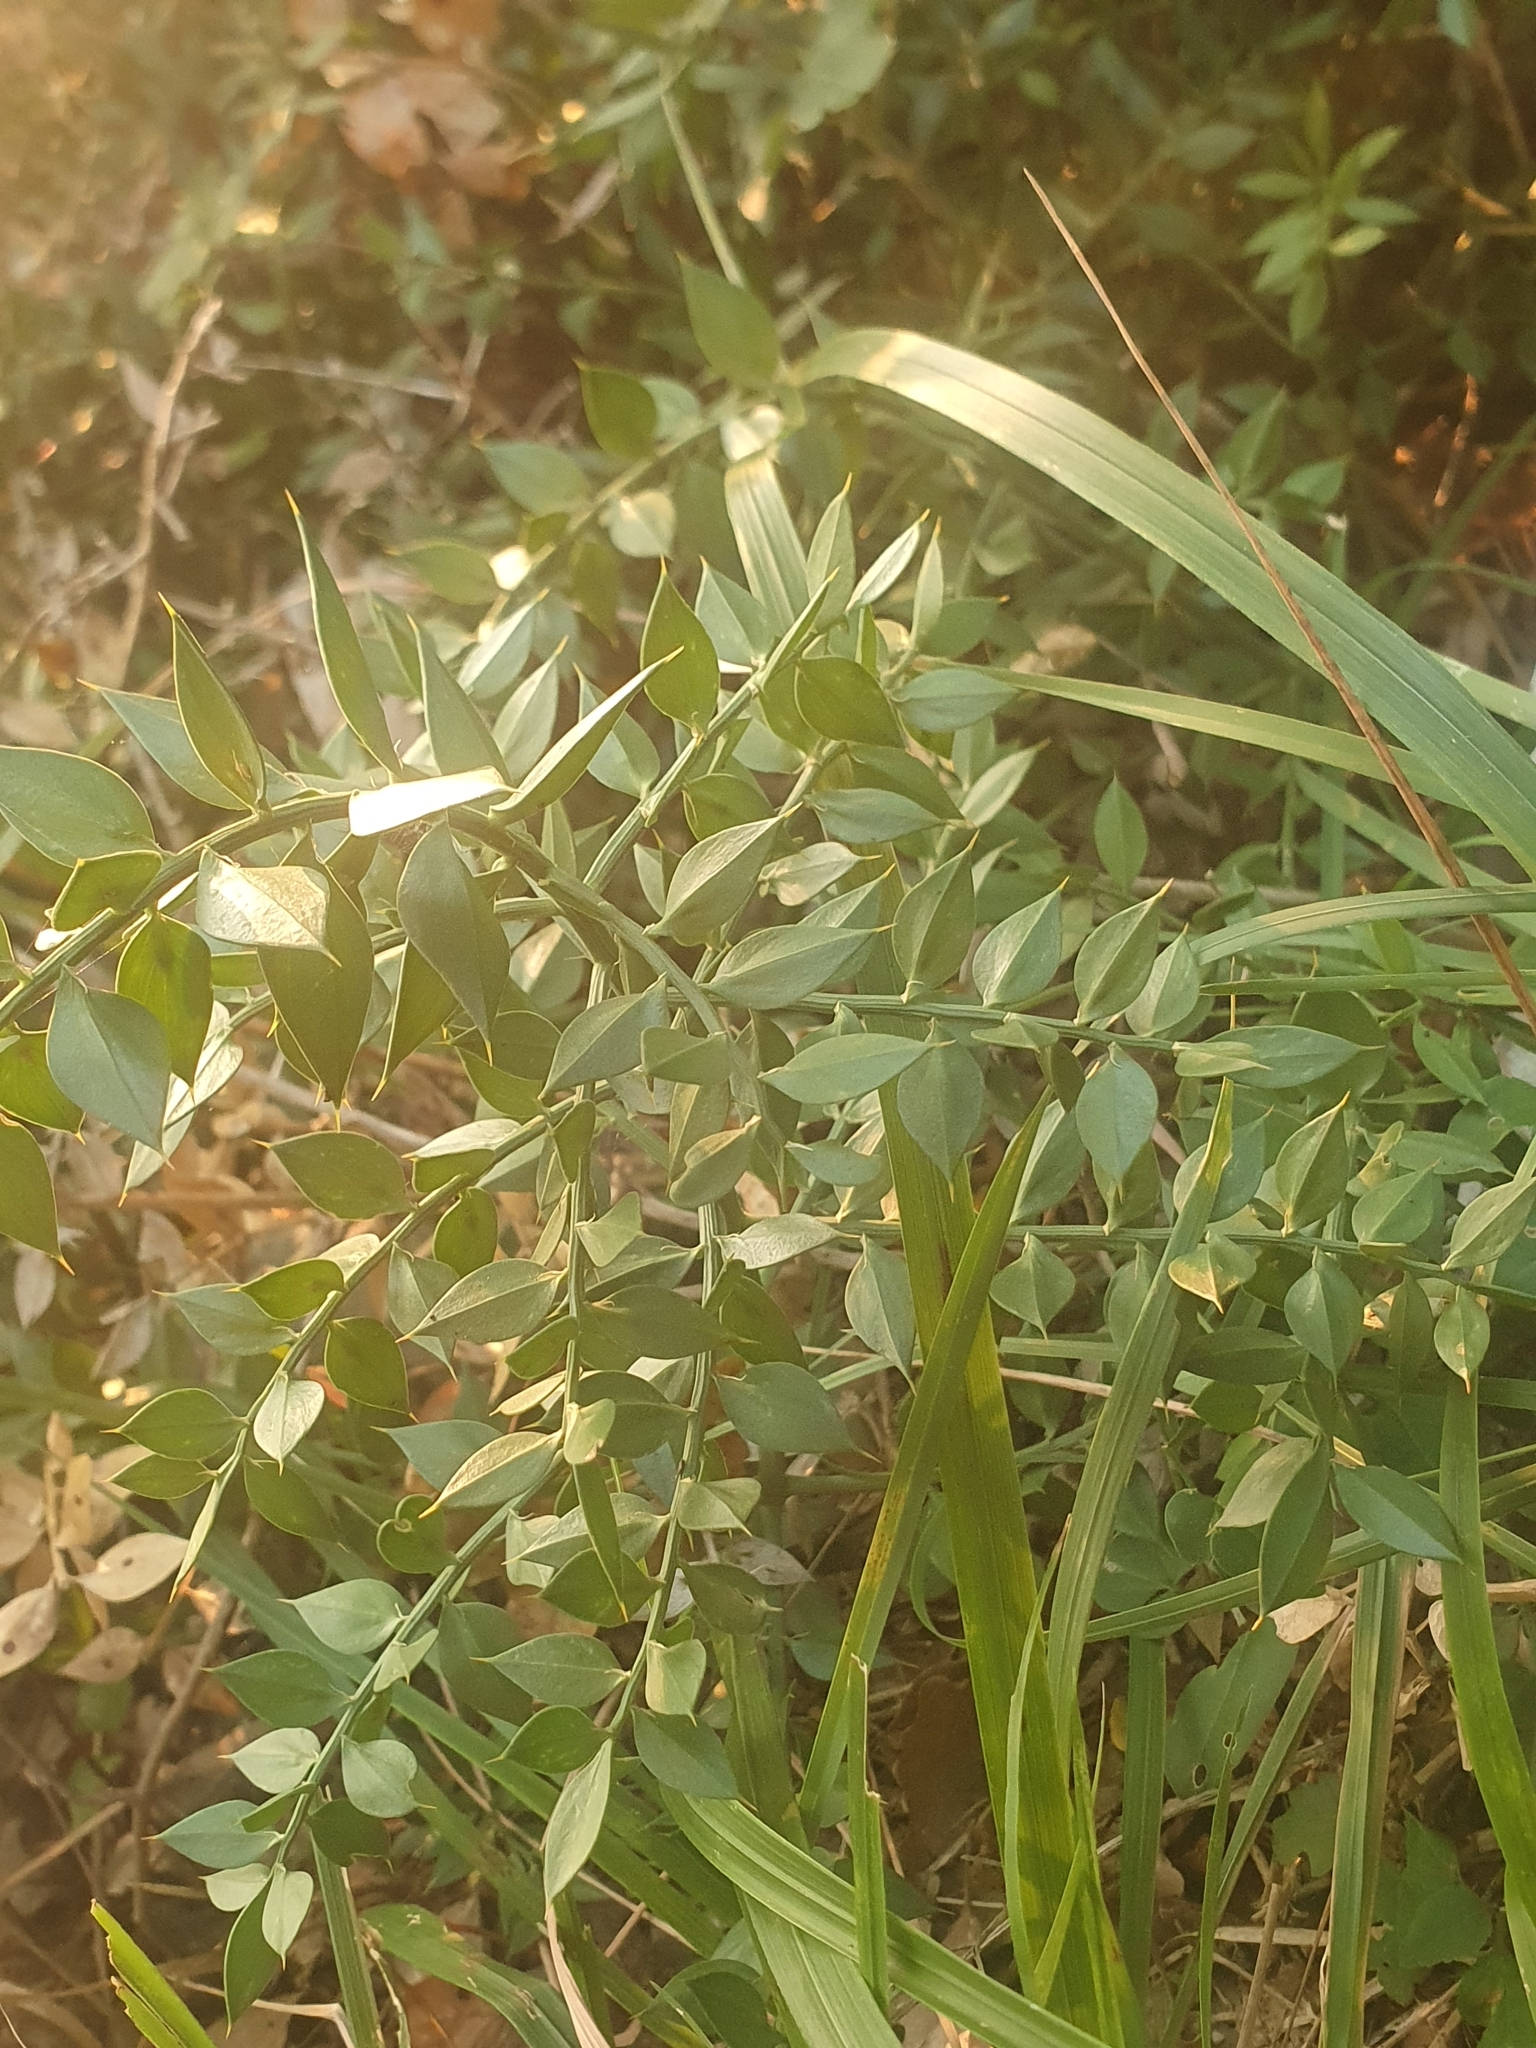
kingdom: Plantae
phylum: Tracheophyta
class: Liliopsida
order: Asparagales
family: Asparagaceae
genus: Ruscus
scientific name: Ruscus aculeatus
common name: Butcher's-broom
